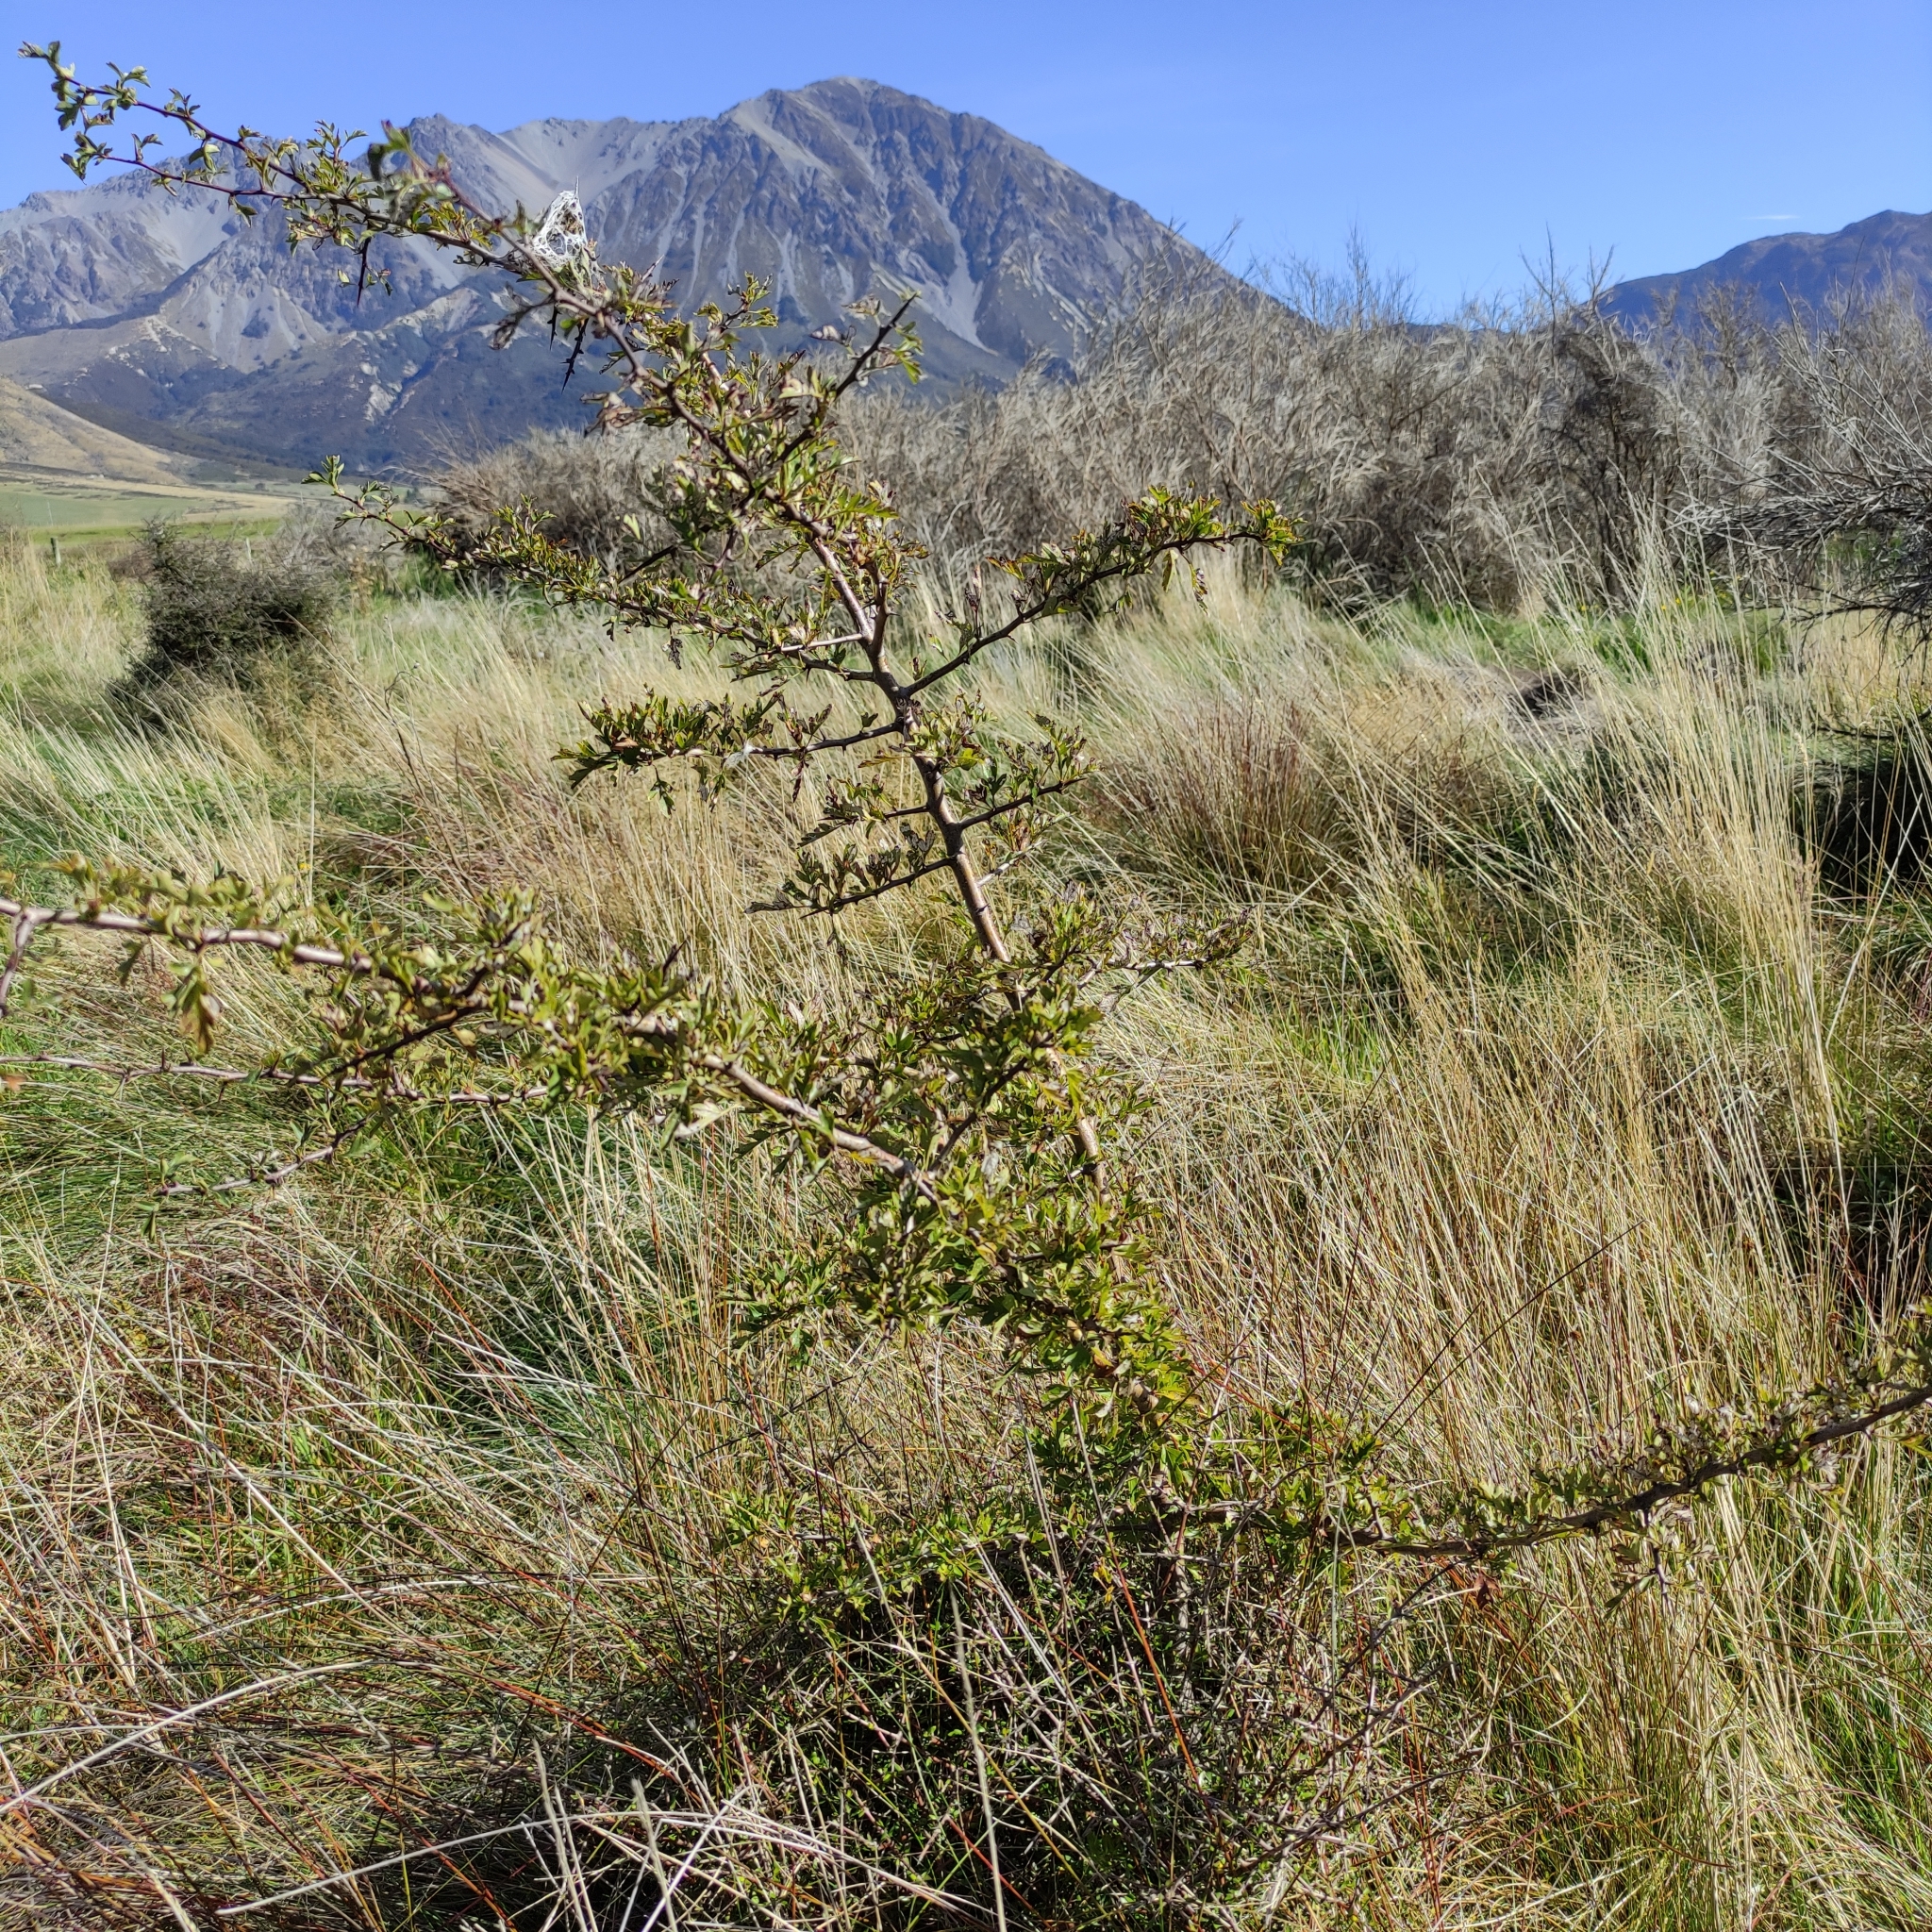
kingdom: Plantae
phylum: Tracheophyta
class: Magnoliopsida
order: Rosales
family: Rosaceae
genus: Crataegus
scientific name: Crataegus monogyna
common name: Hawthorn
